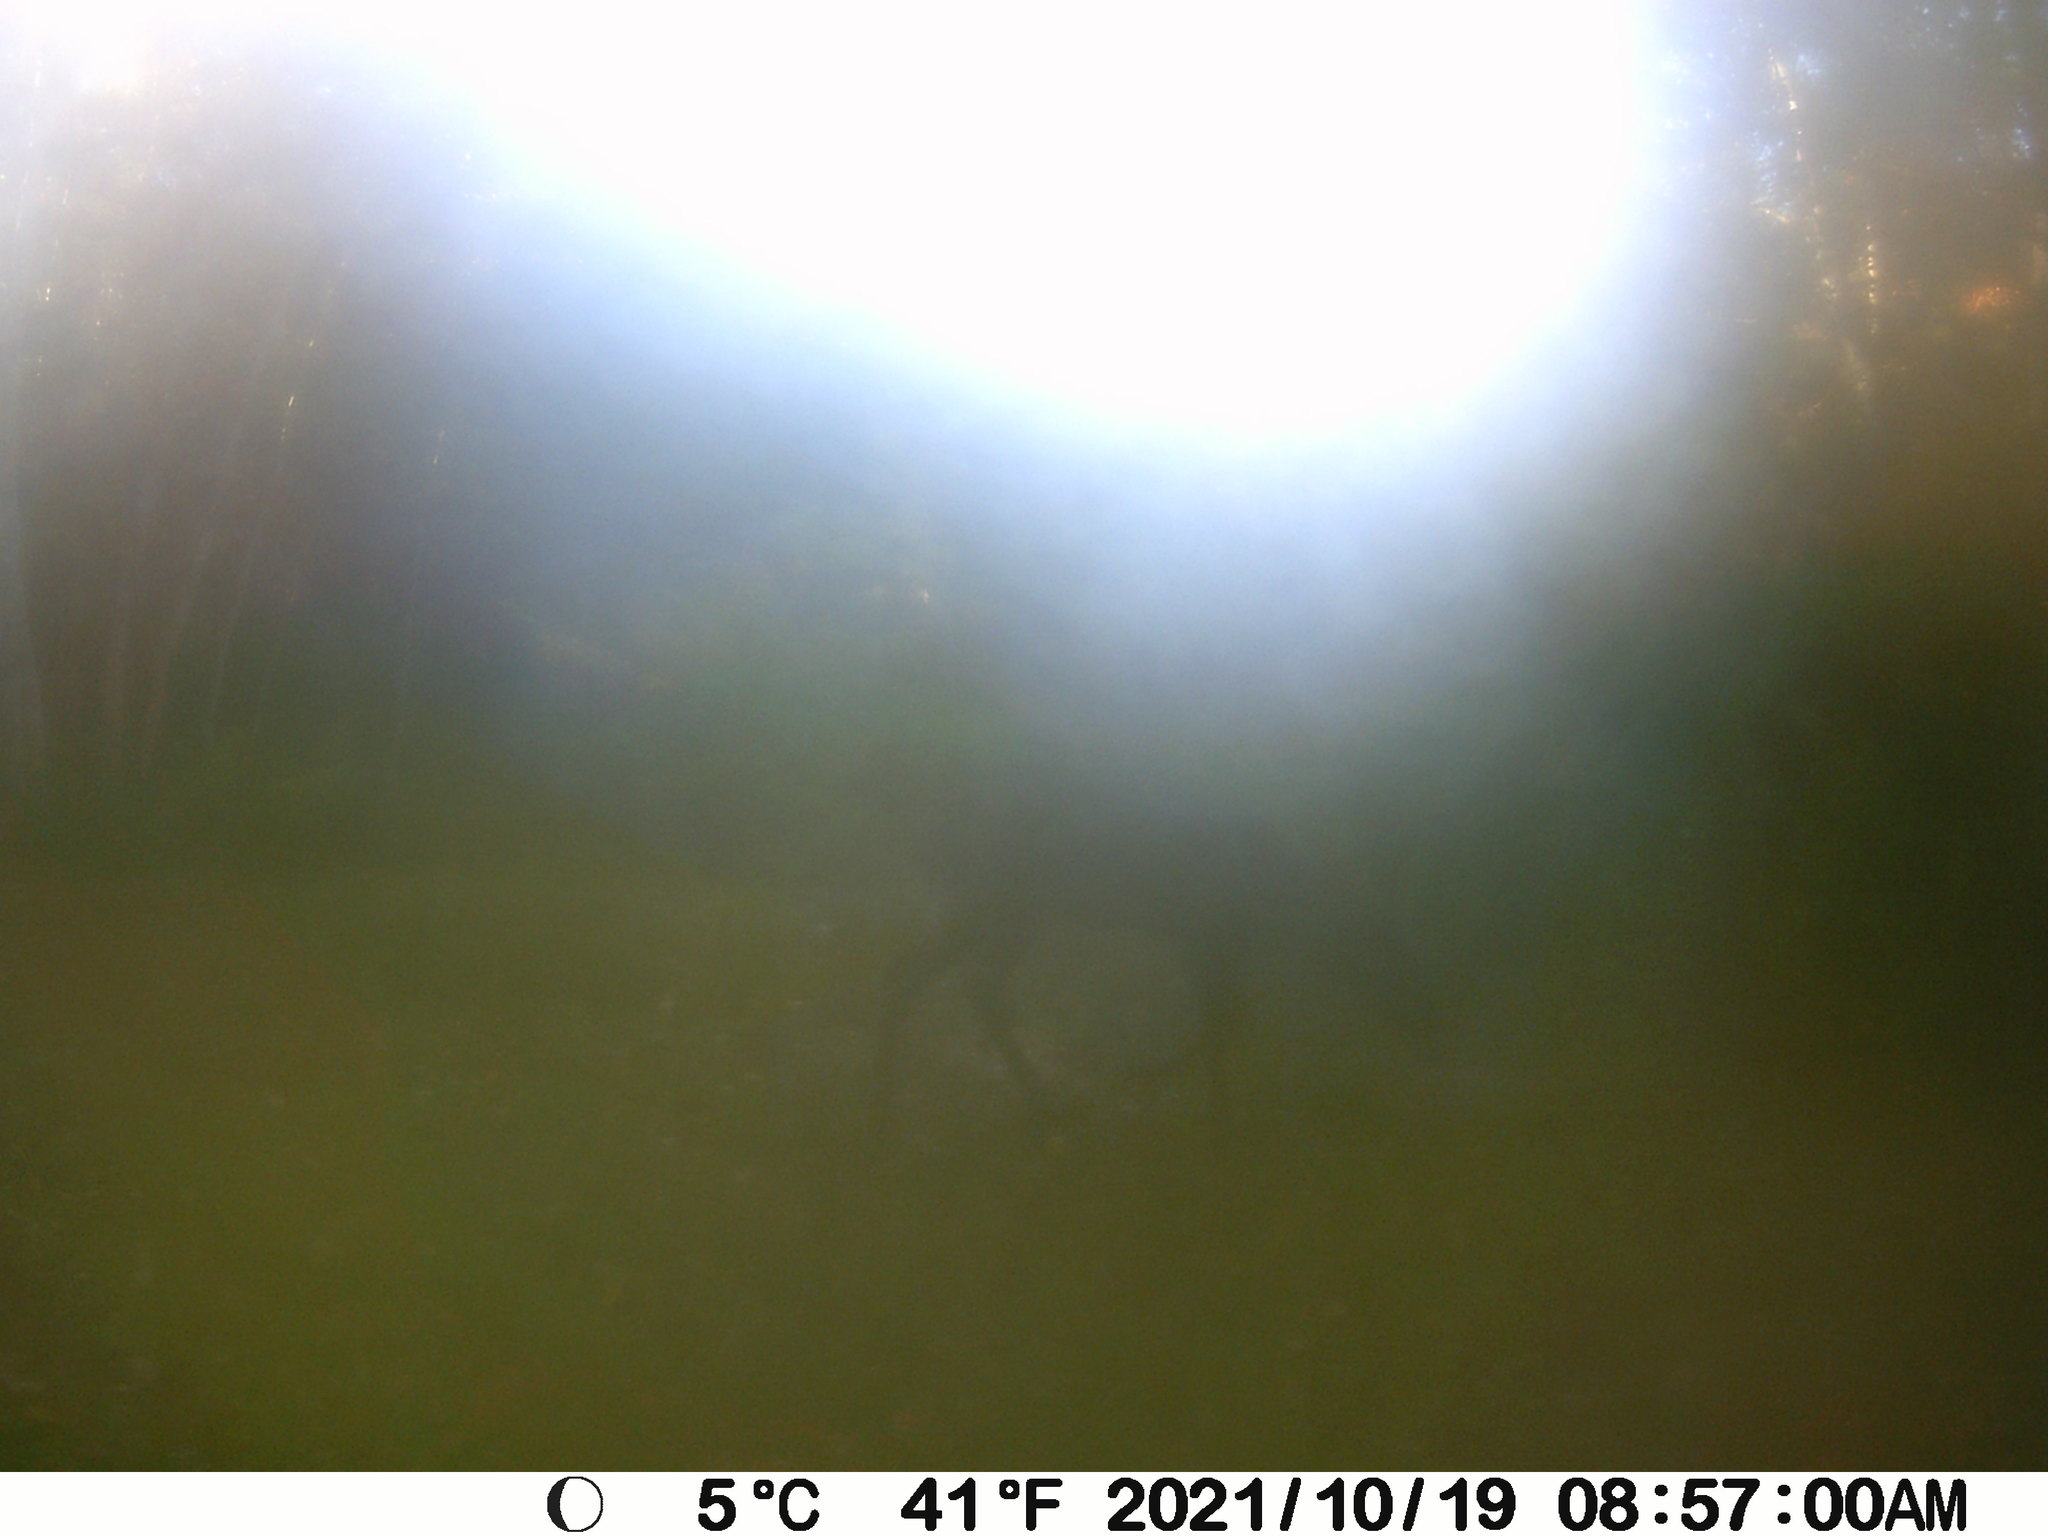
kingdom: Animalia
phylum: Chordata
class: Mammalia
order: Artiodactyla
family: Cervidae
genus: Odocoileus
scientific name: Odocoileus virginianus
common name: White-tailed deer
